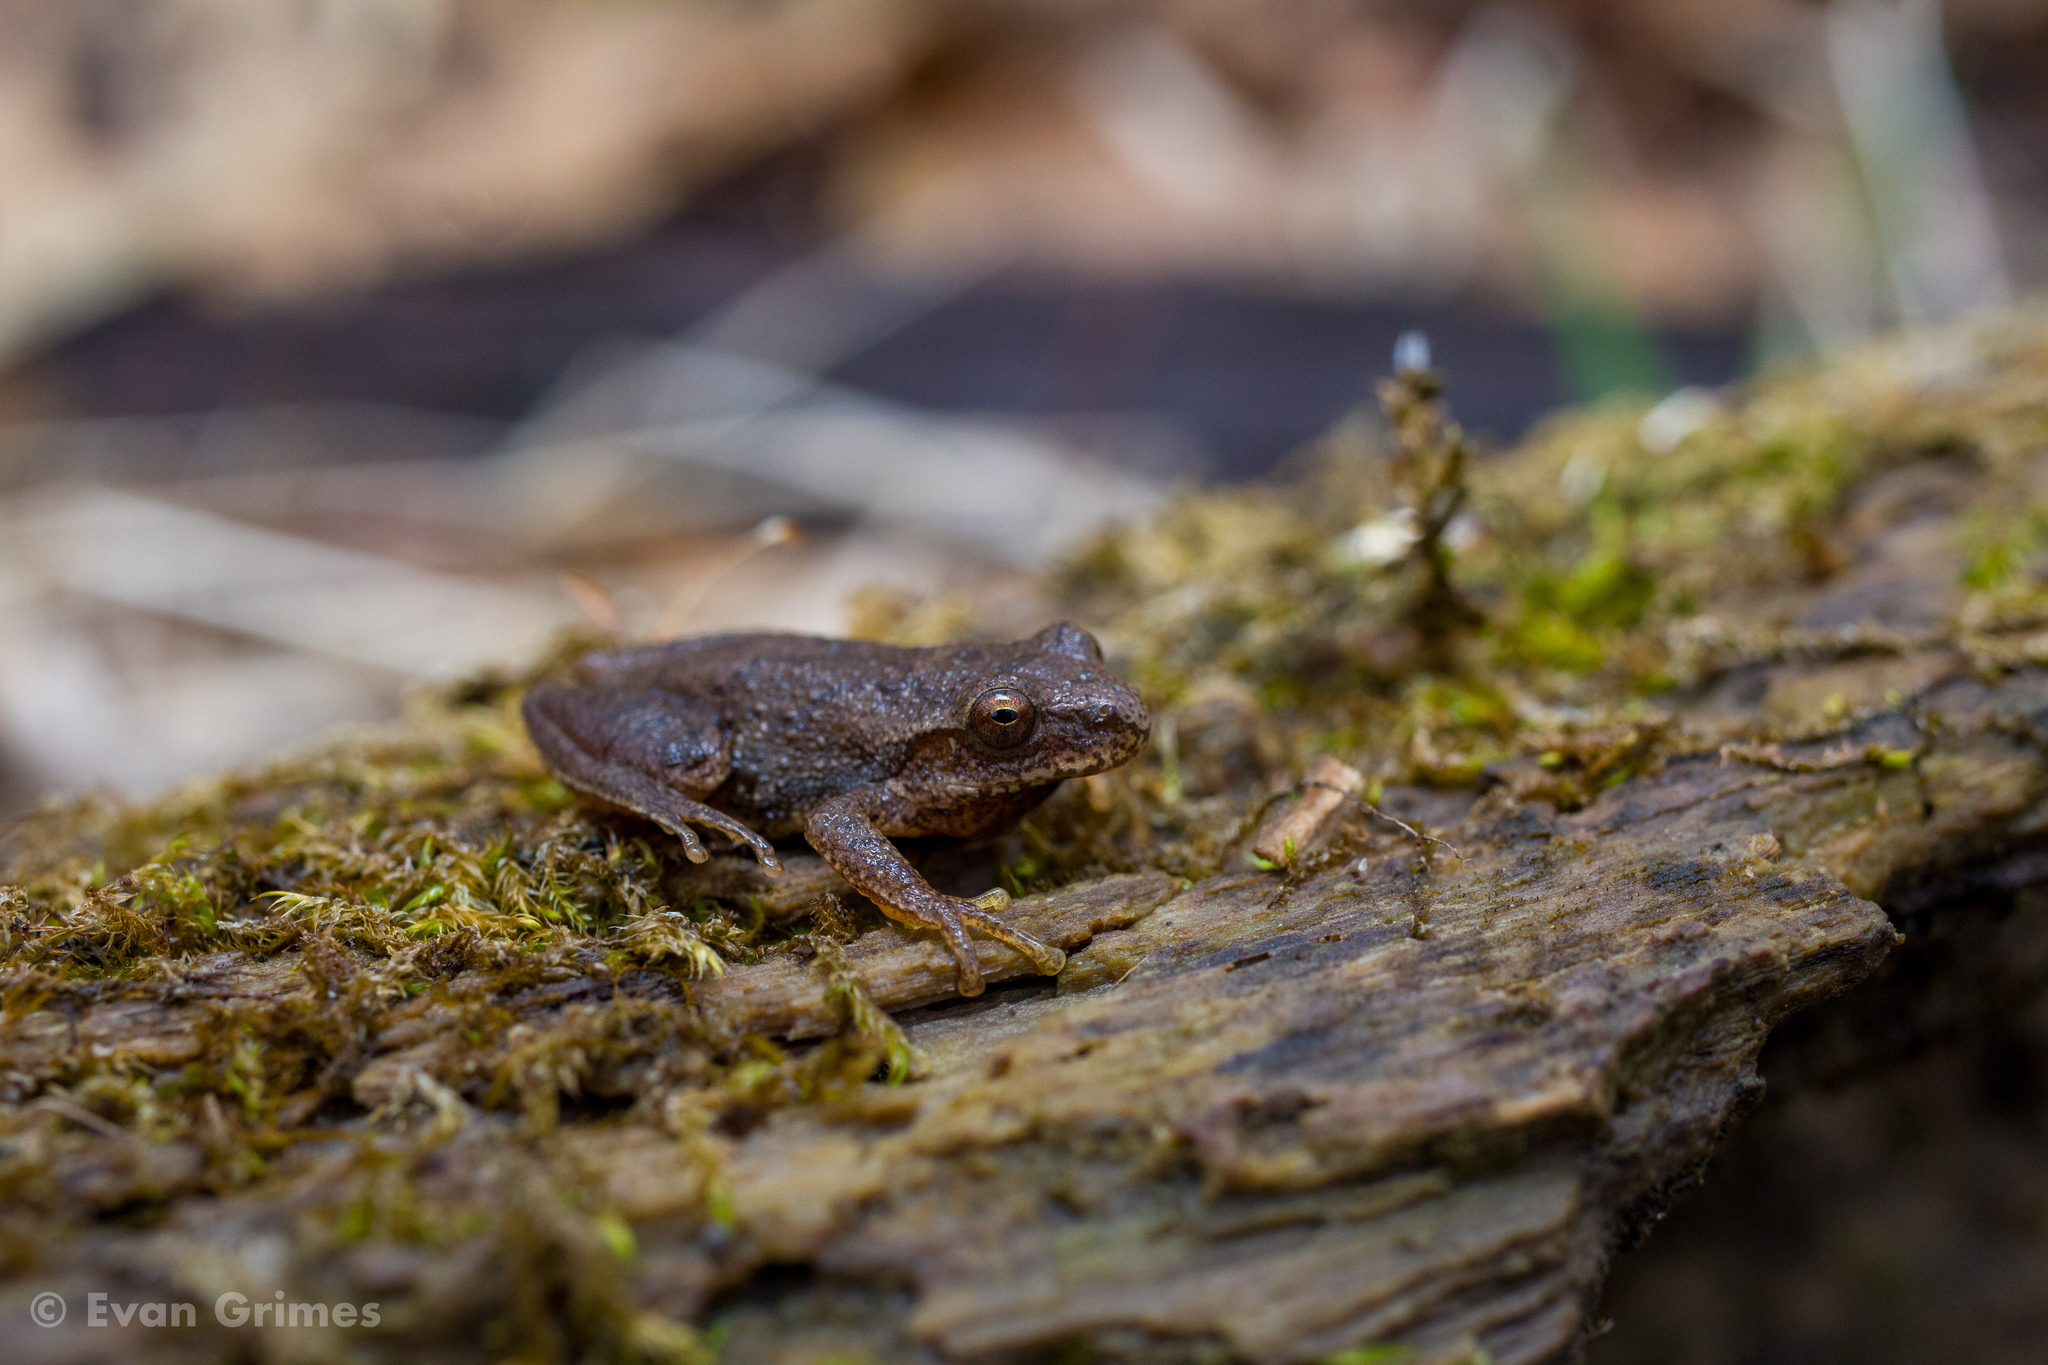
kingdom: Animalia
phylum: Chordata
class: Amphibia
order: Anura
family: Hylidae
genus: Pseudacris
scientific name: Pseudacris crucifer
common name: Spring peeper
